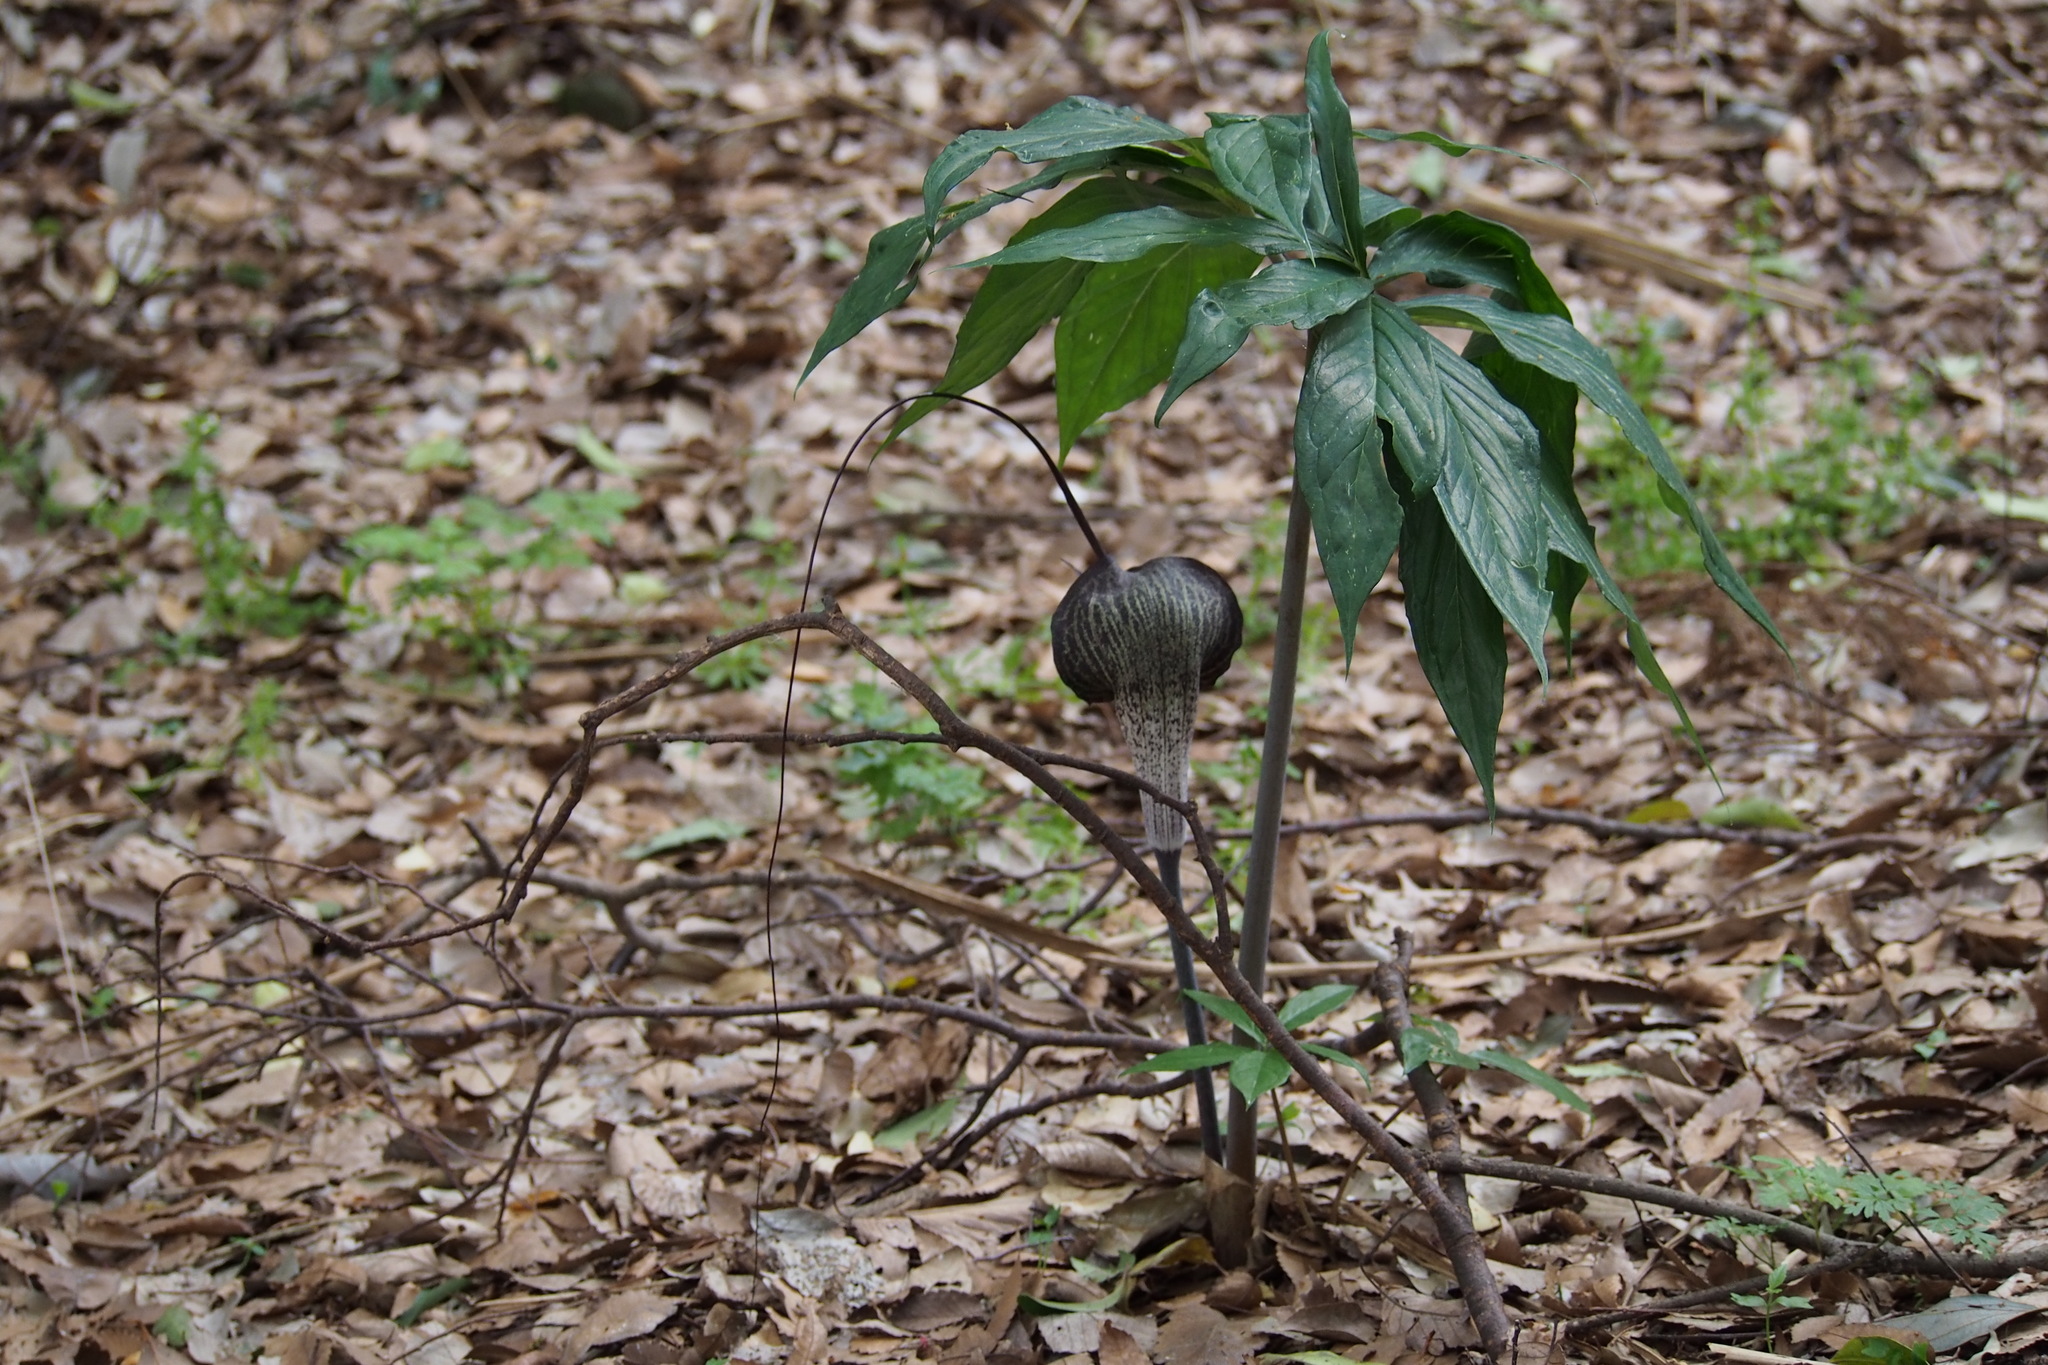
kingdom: Plantae
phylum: Tracheophyta
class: Liliopsida
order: Alismatales
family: Araceae
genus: Arisaema
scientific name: Arisaema thunbergii
